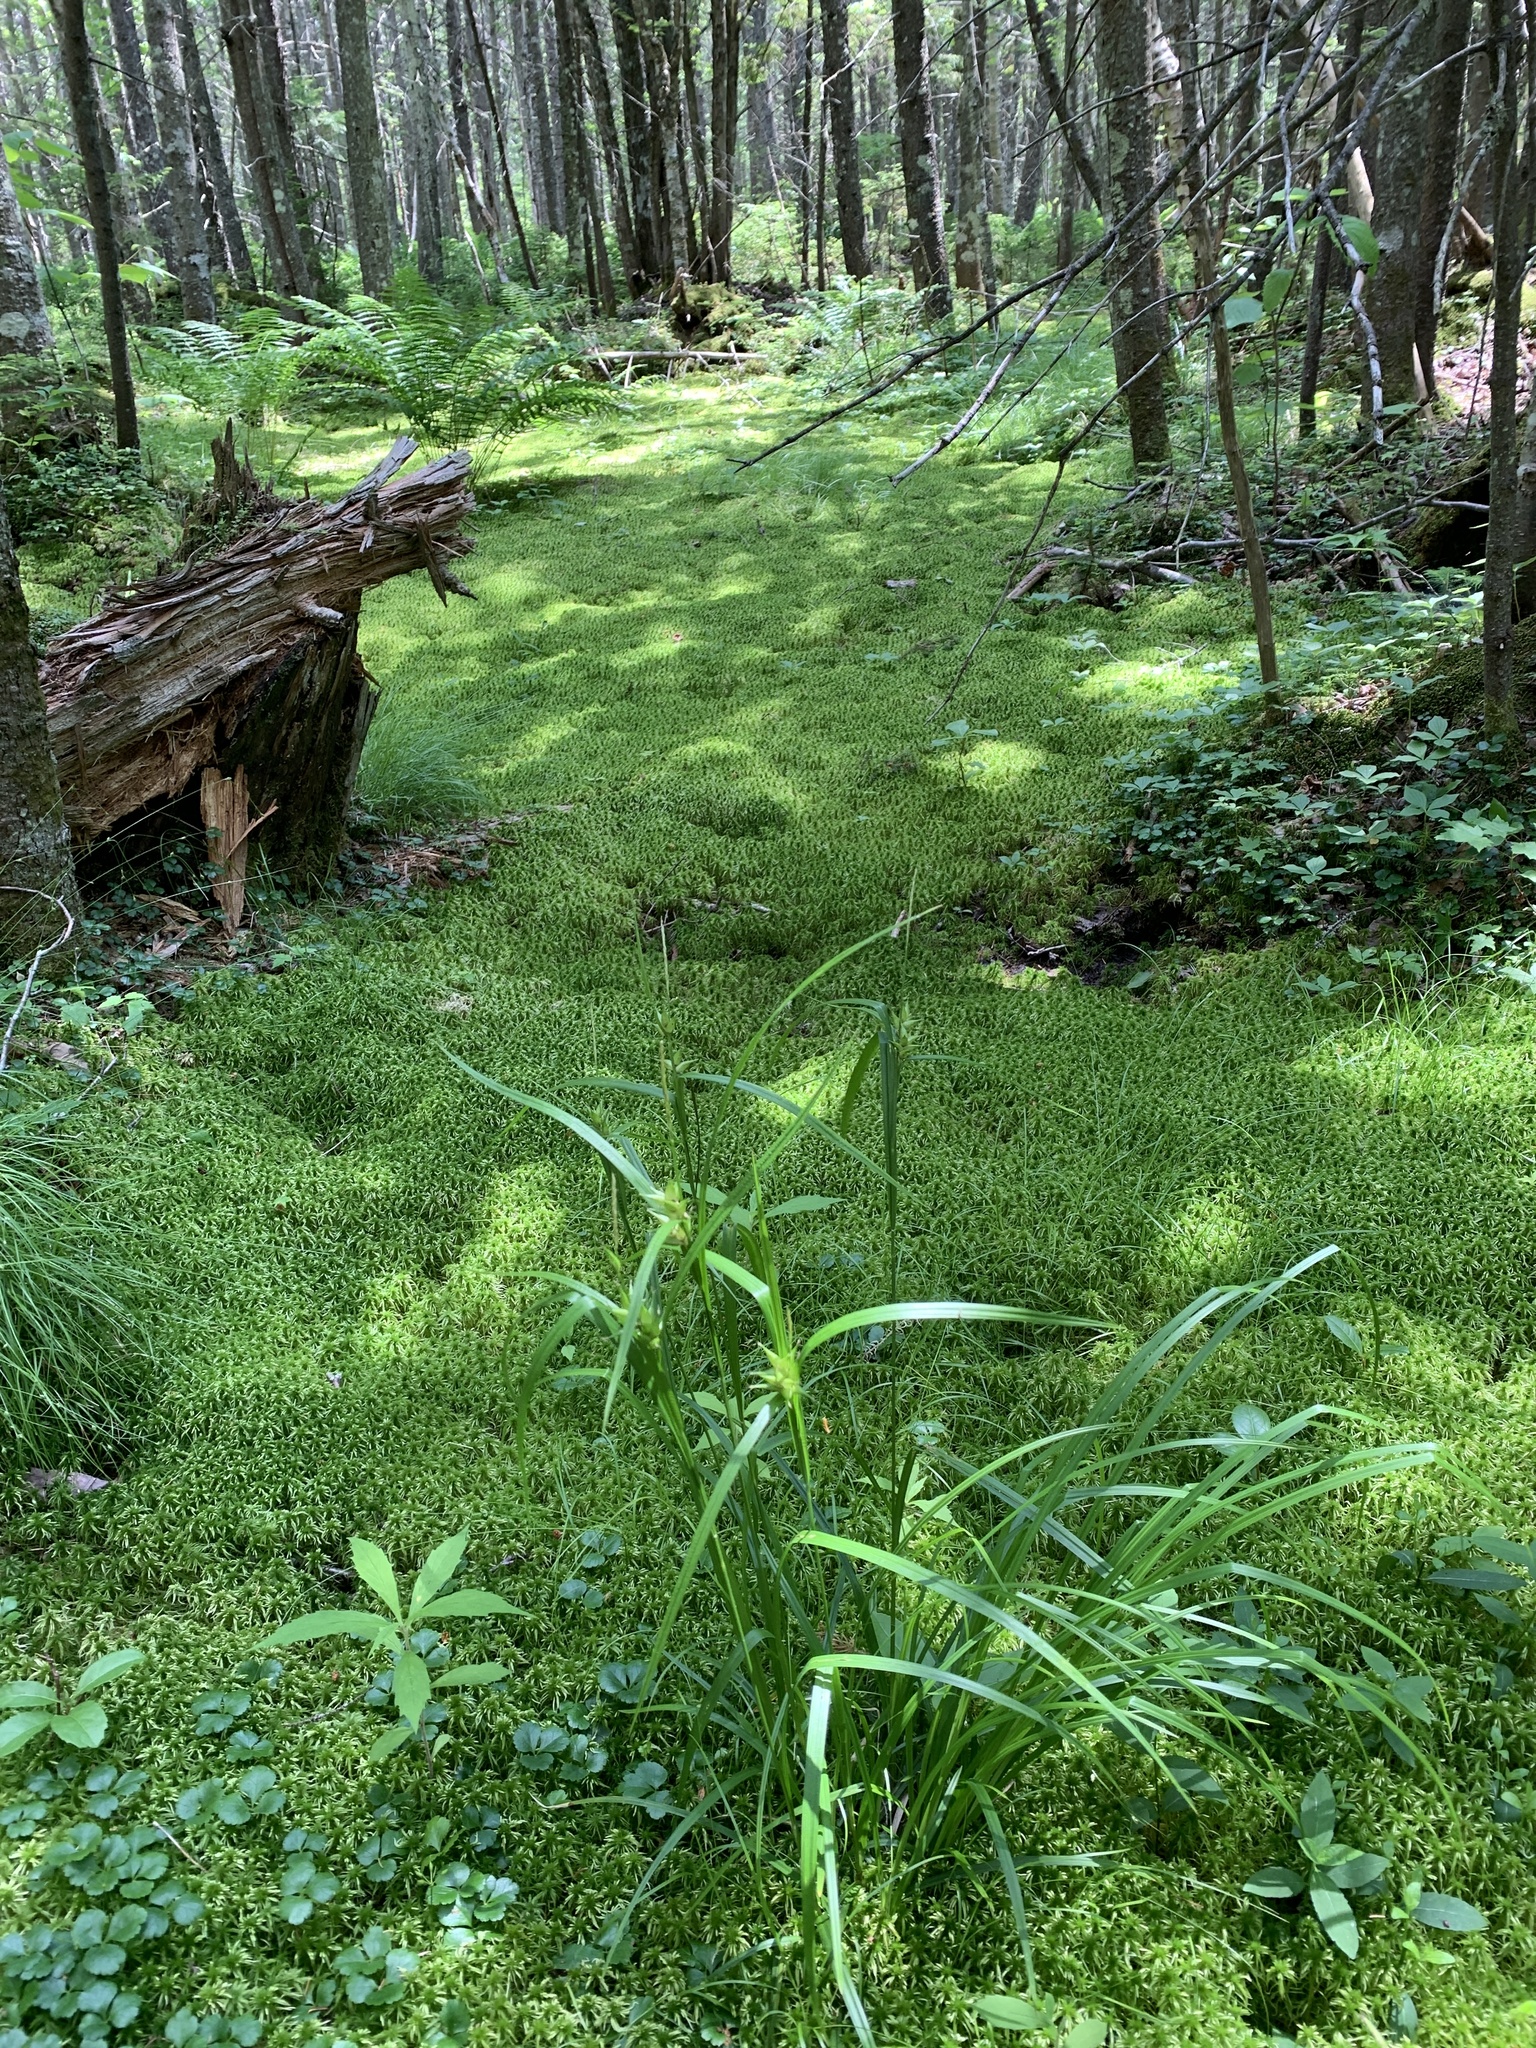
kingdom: Plantae
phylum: Tracheophyta
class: Liliopsida
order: Poales
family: Cyperaceae
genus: Carex
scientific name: Carex intumescens
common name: Greater bladder sedge
